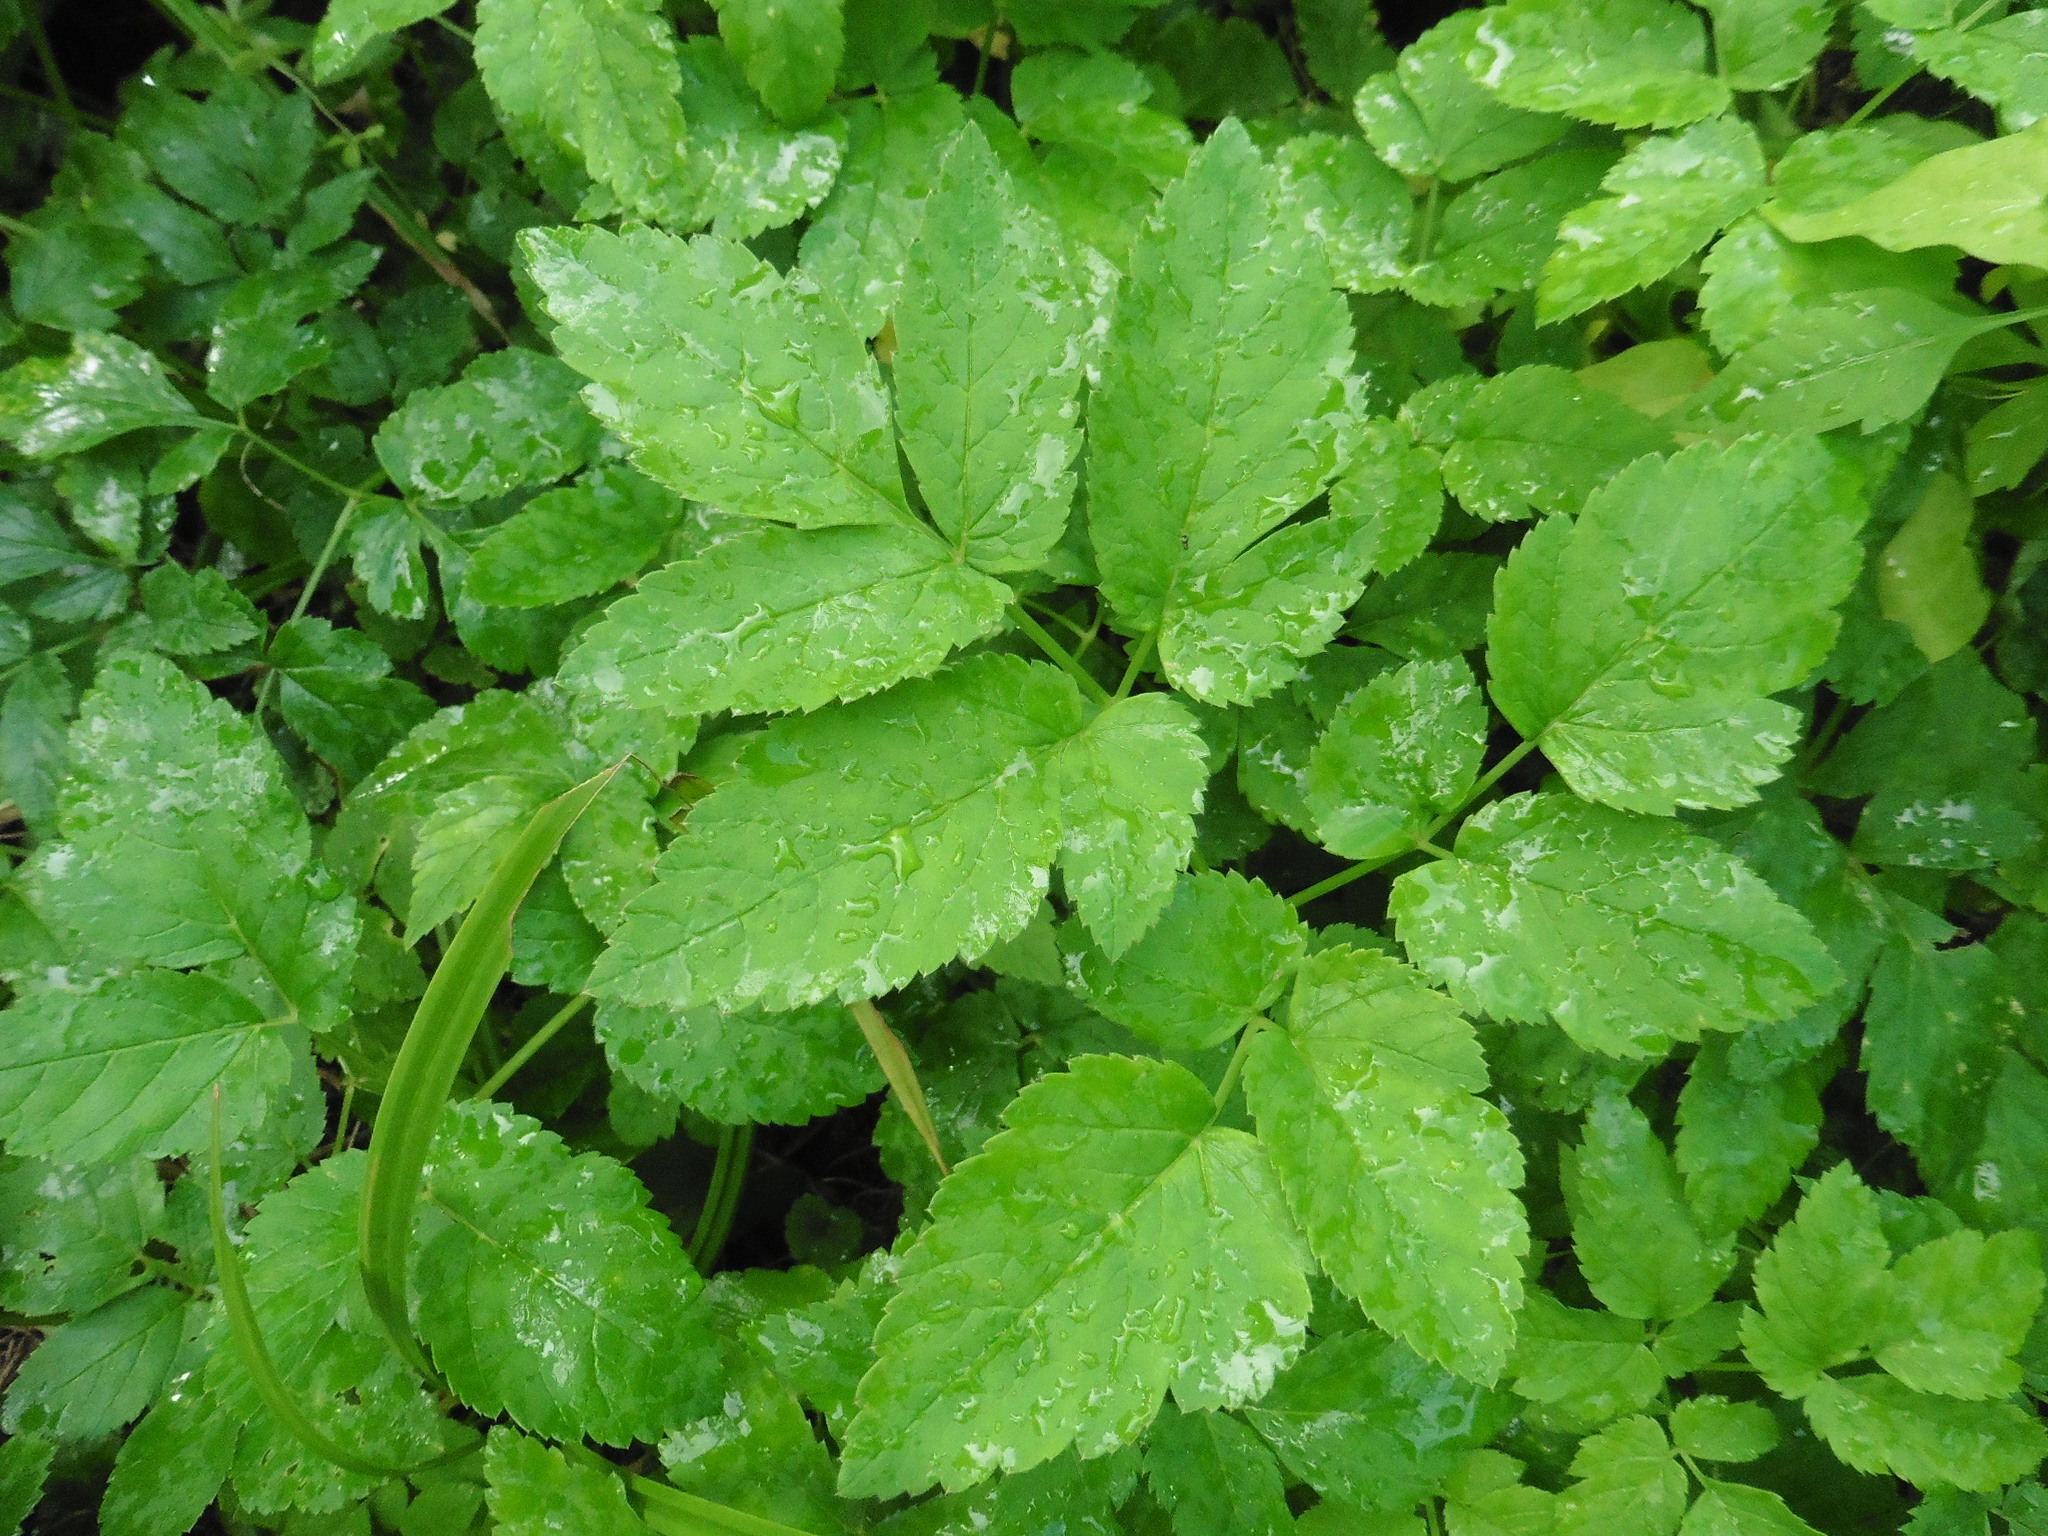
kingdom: Plantae
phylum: Tracheophyta
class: Magnoliopsida
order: Apiales
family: Apiaceae
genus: Aegopodium
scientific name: Aegopodium podagraria
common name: Ground-elder
